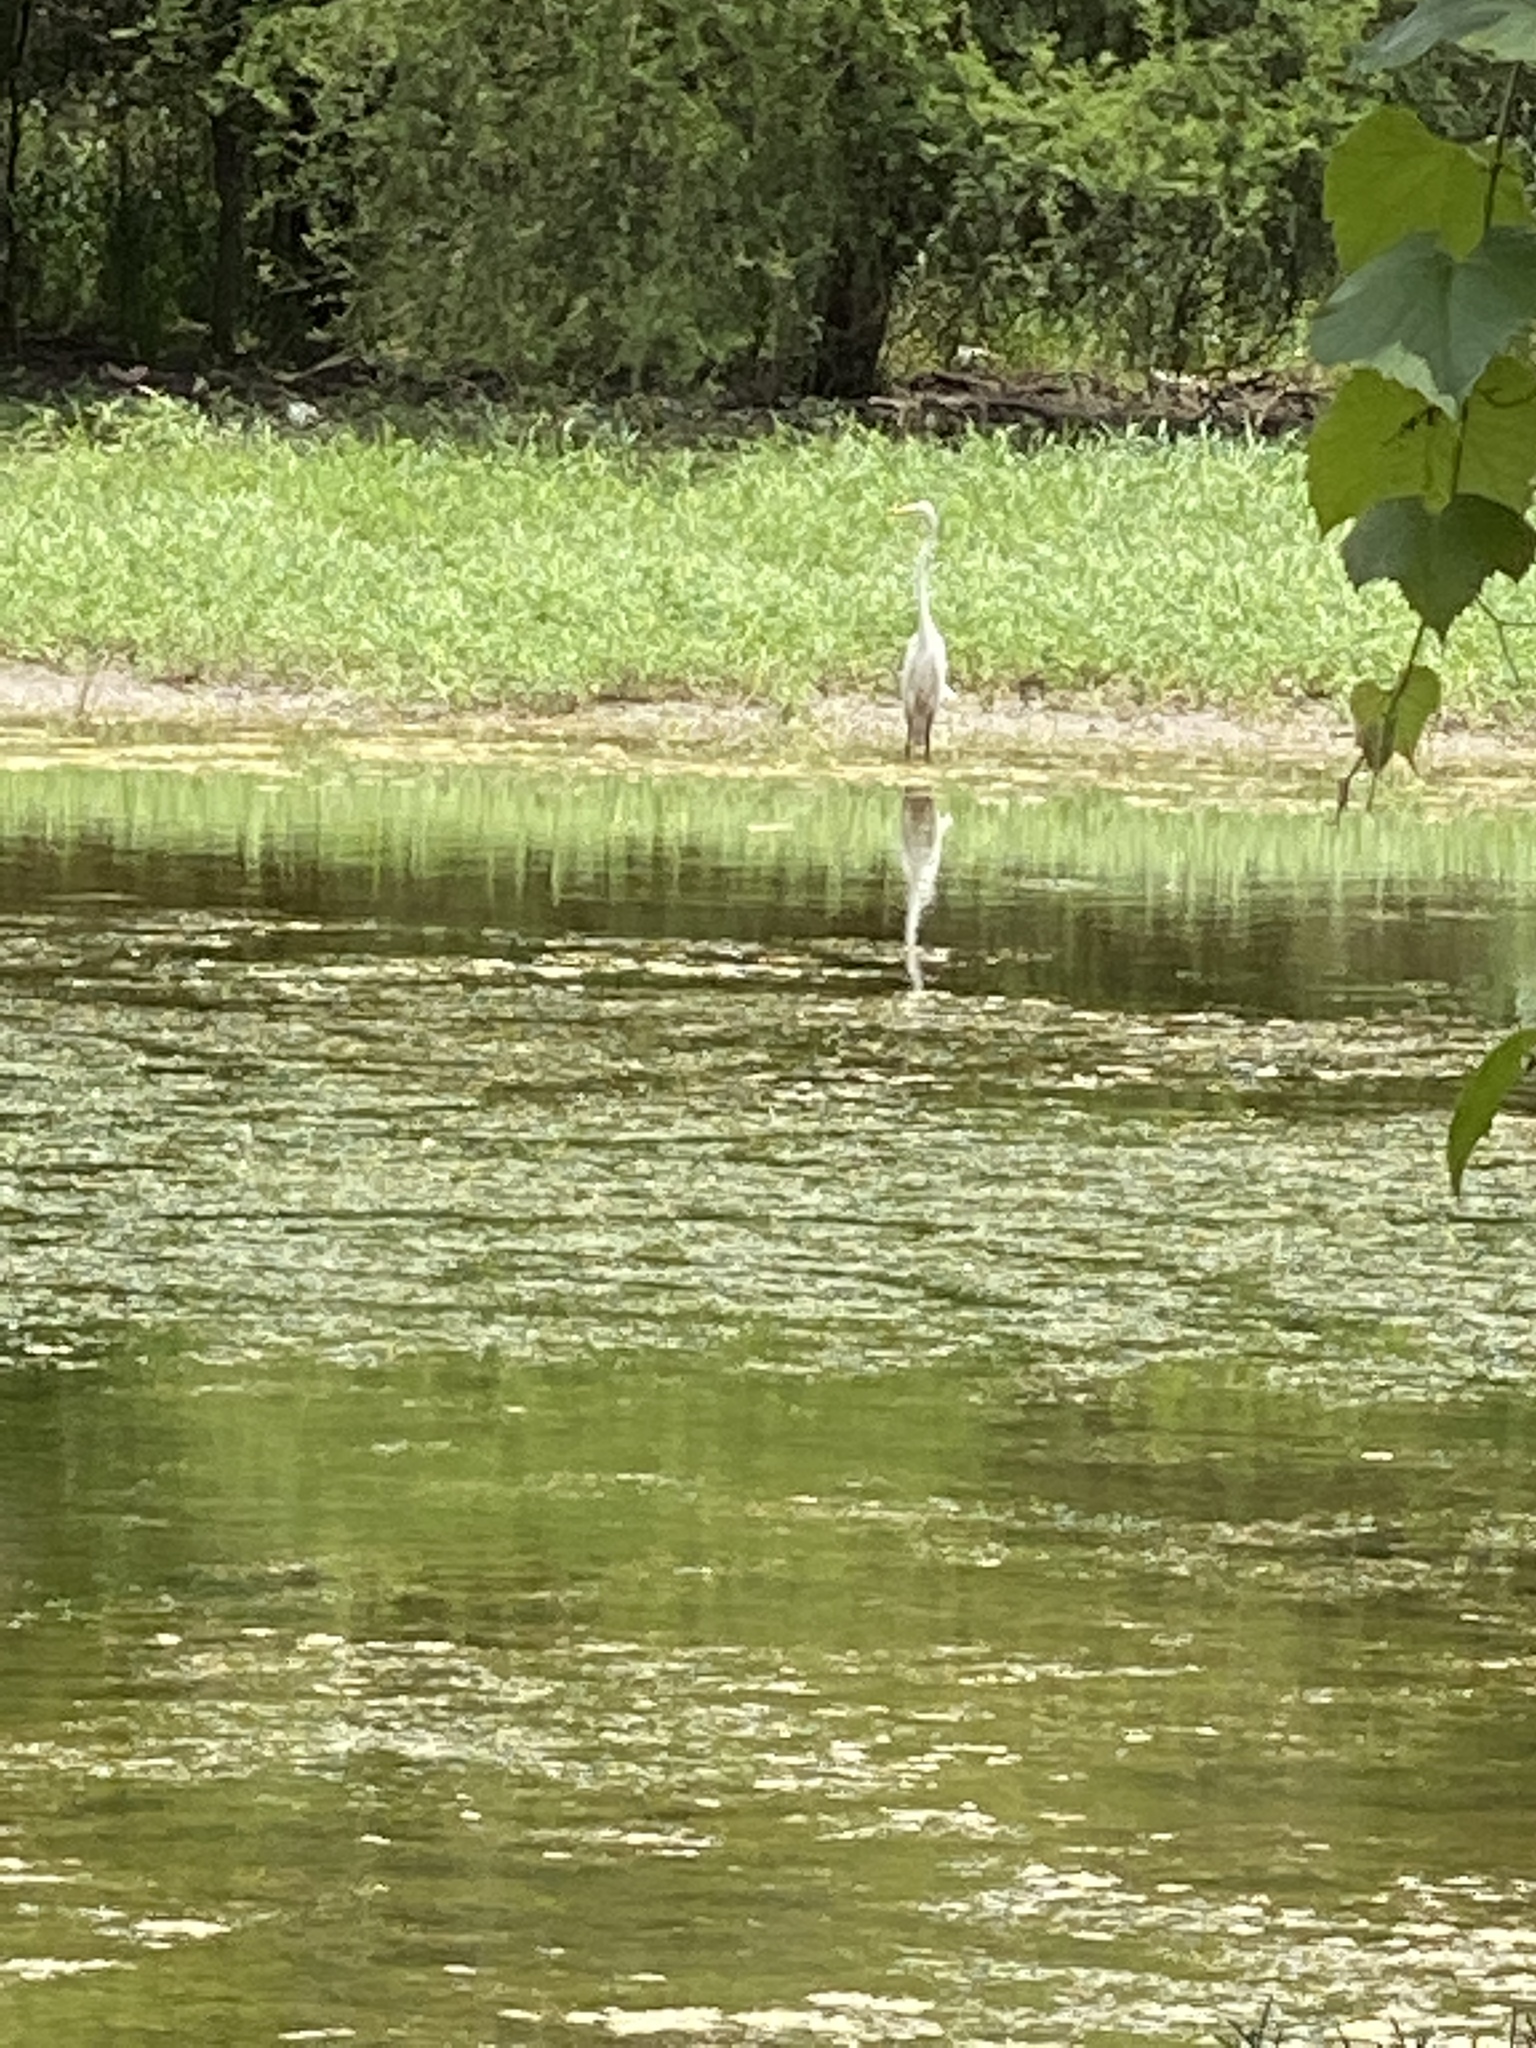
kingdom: Animalia
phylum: Chordata
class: Aves
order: Pelecaniformes
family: Ardeidae
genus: Ardea
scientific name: Ardea alba
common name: Great egret
